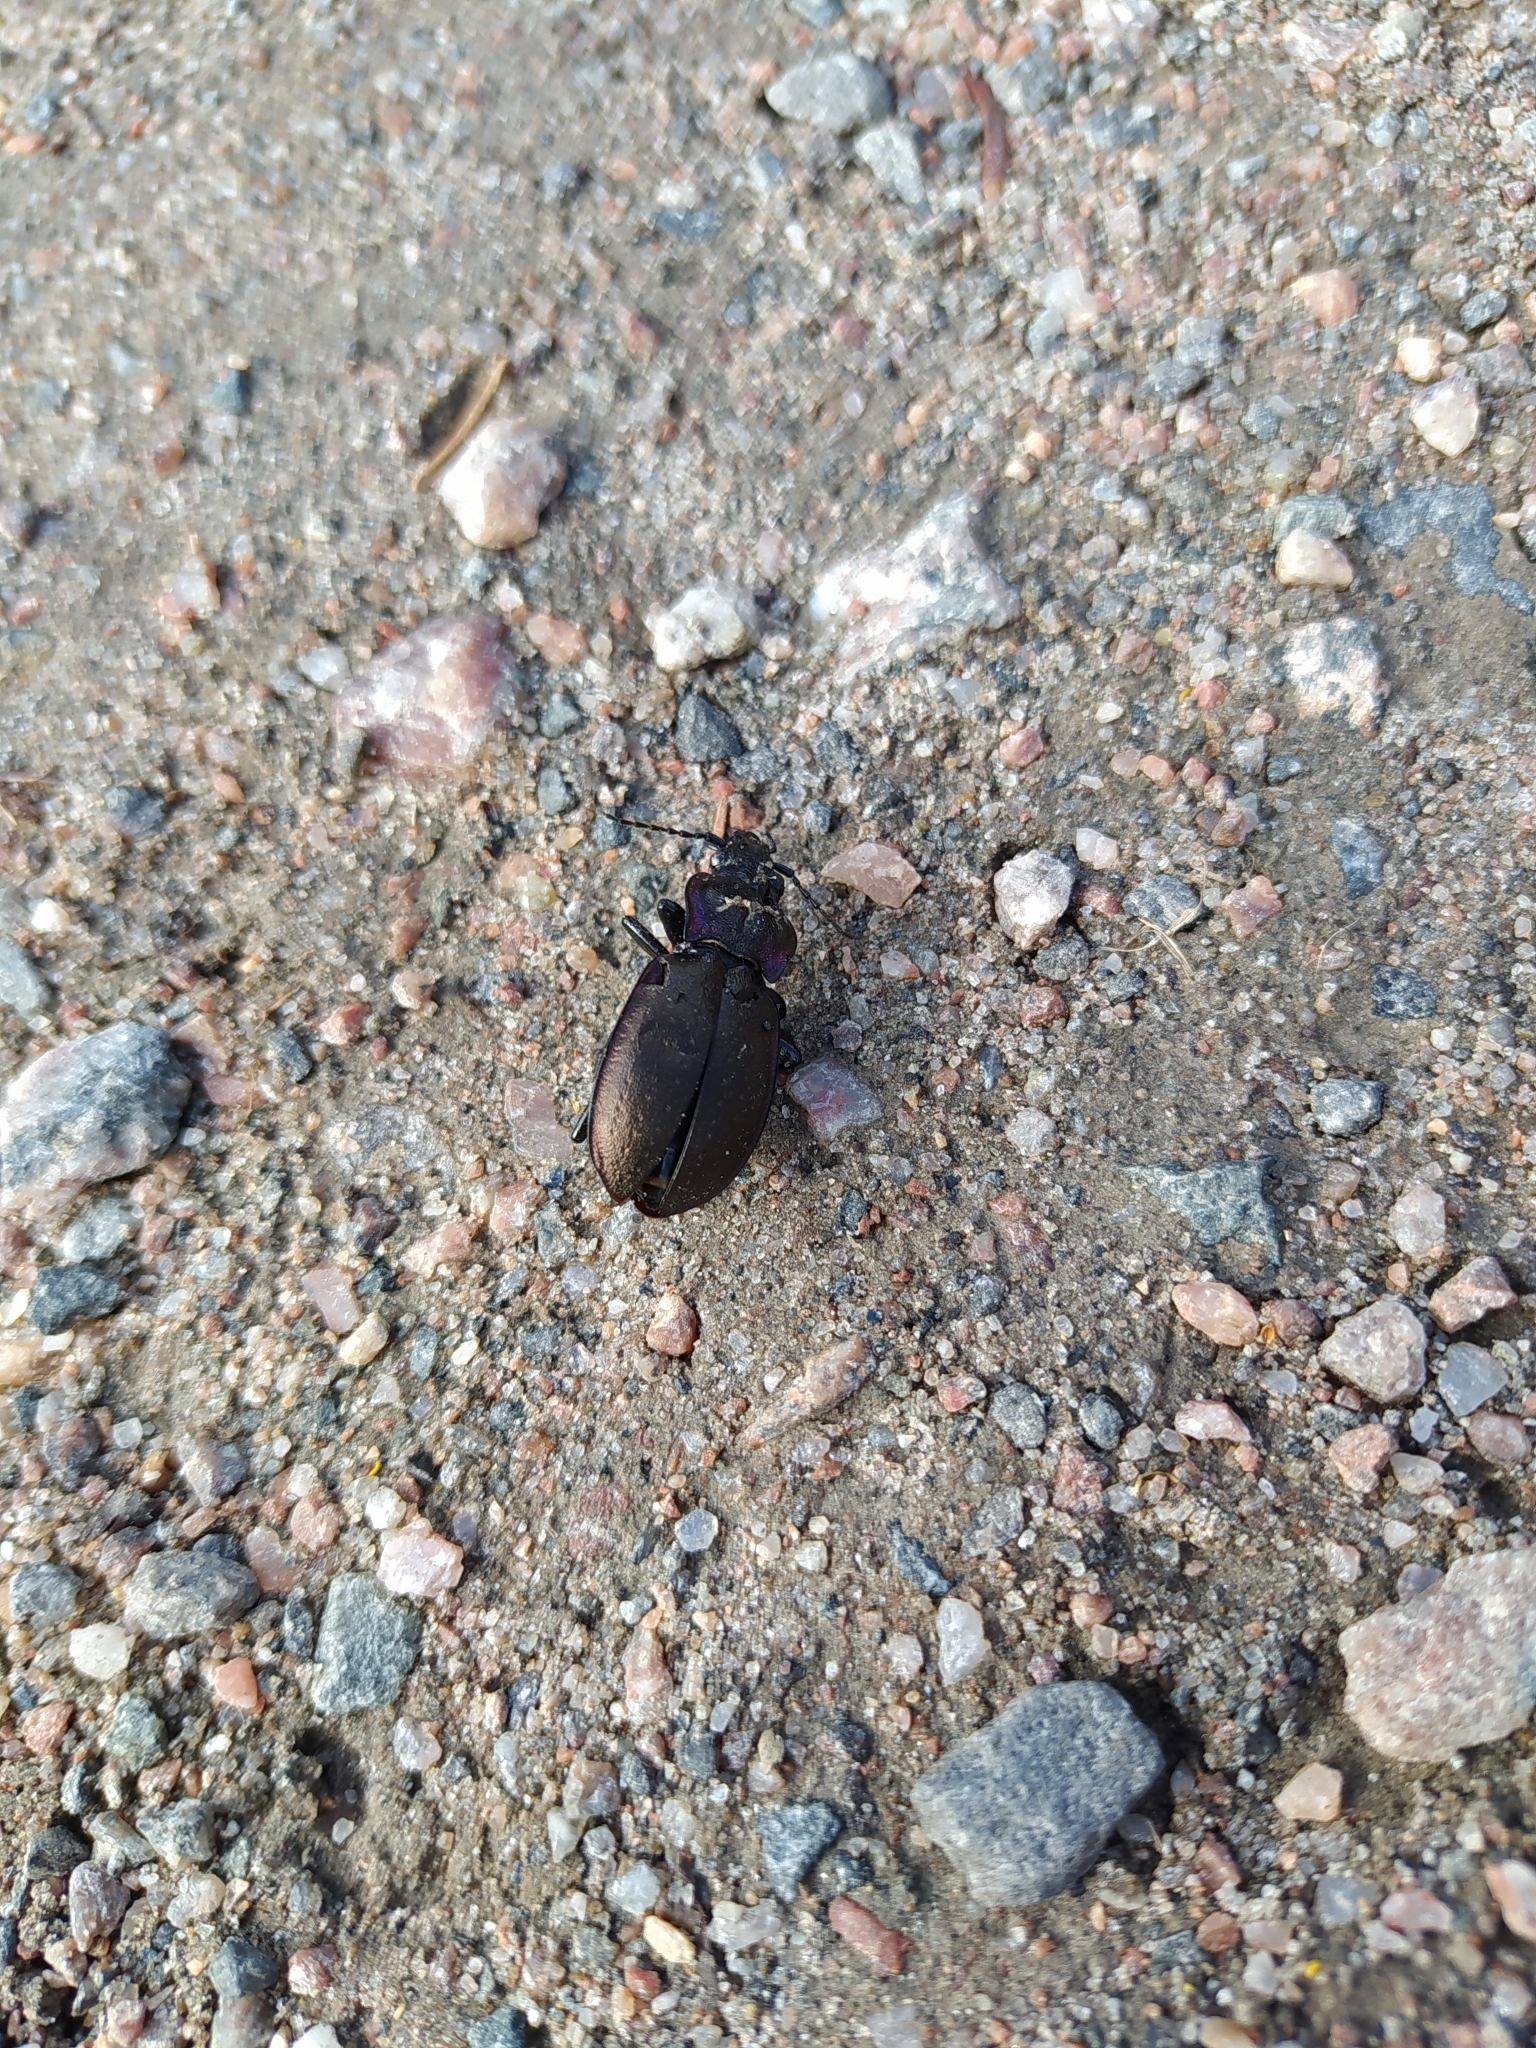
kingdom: Animalia
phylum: Arthropoda
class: Insecta
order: Coleoptera
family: Carabidae
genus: Carabus
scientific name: Carabus nemoralis
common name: European ground beetle
